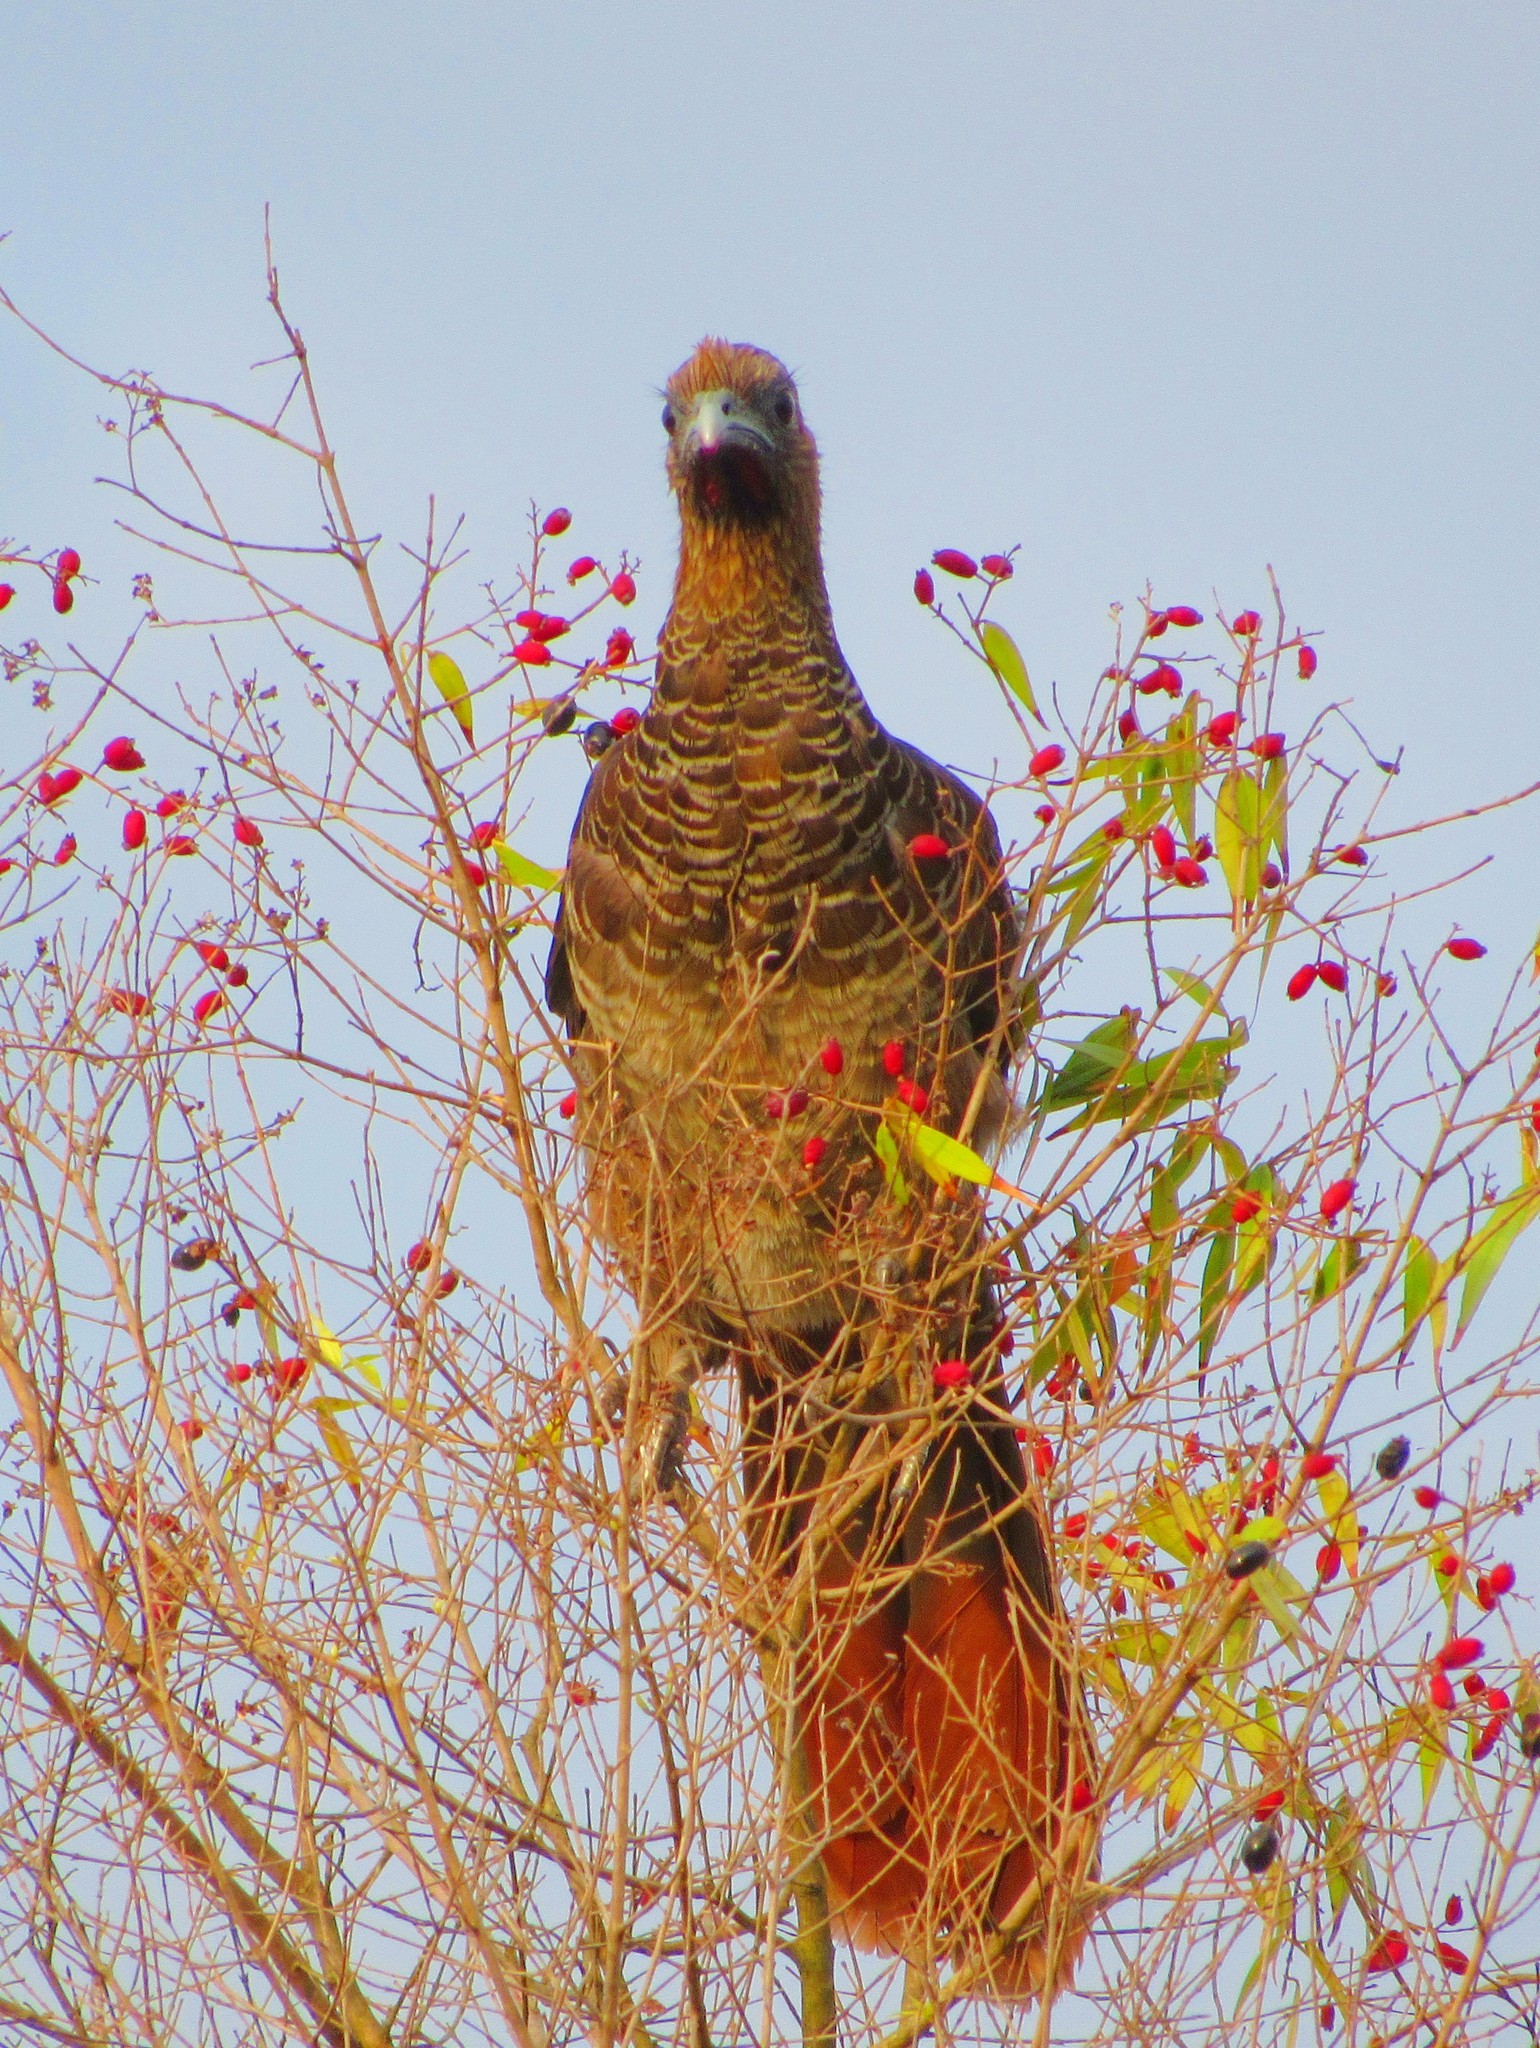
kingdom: Animalia
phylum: Chordata
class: Aves
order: Galliformes
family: Cracidae
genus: Ortalis
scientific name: Ortalis squamata
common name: Scaled chachalaca
